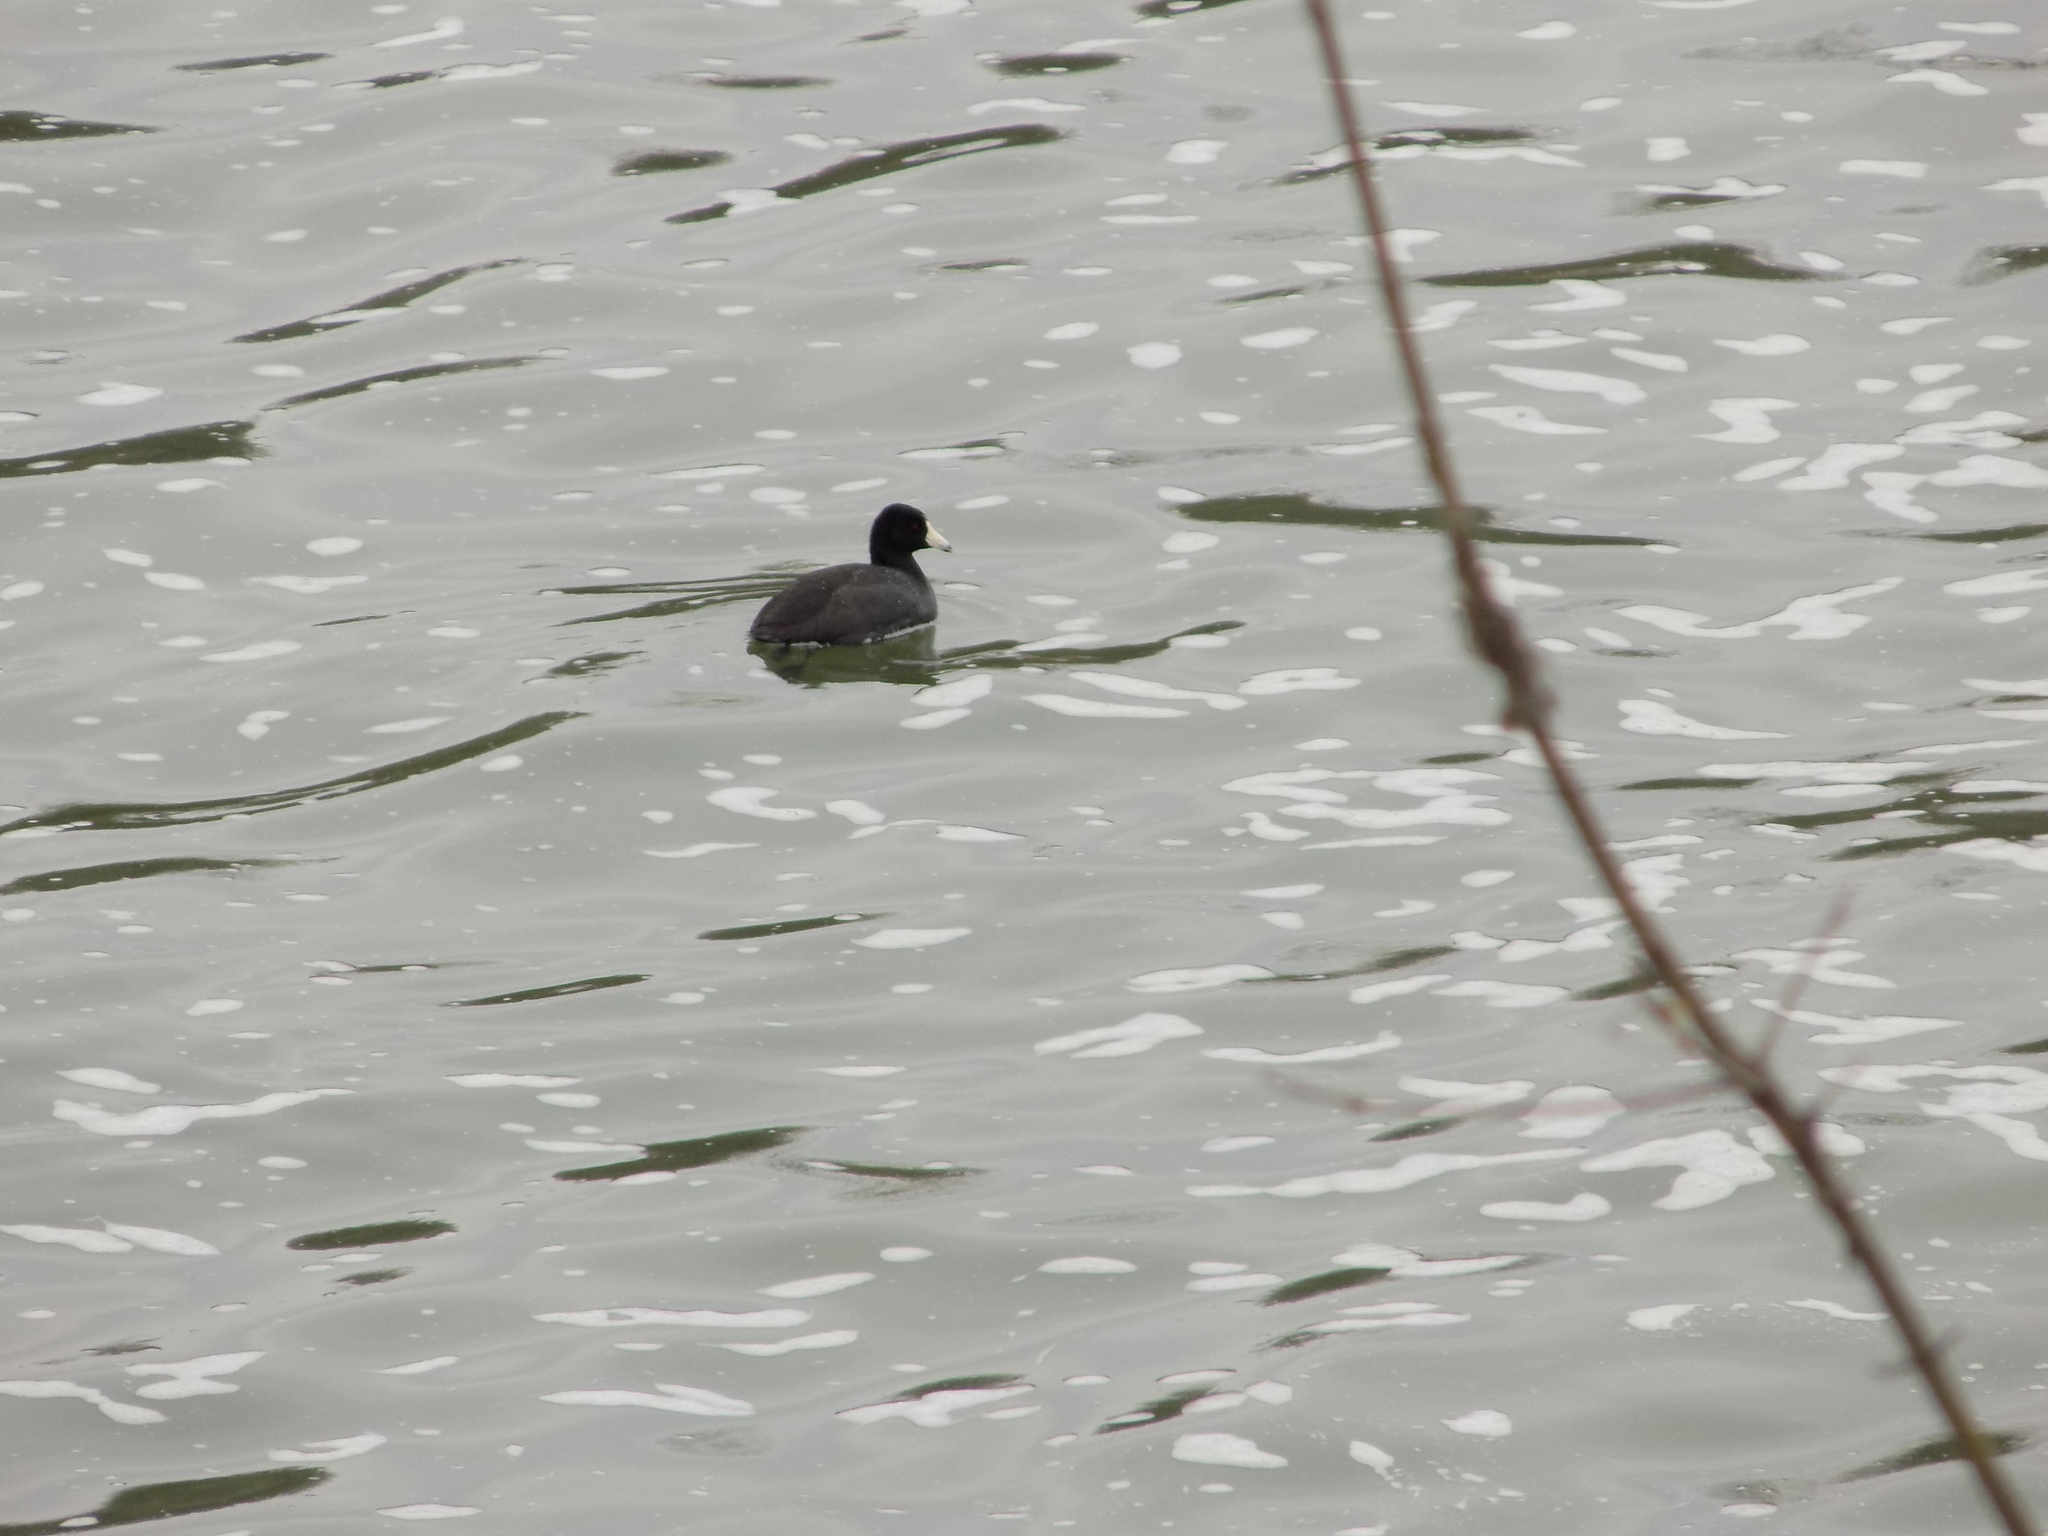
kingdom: Animalia
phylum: Chordata
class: Aves
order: Gruiformes
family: Rallidae
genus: Fulica
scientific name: Fulica americana
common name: American coot
